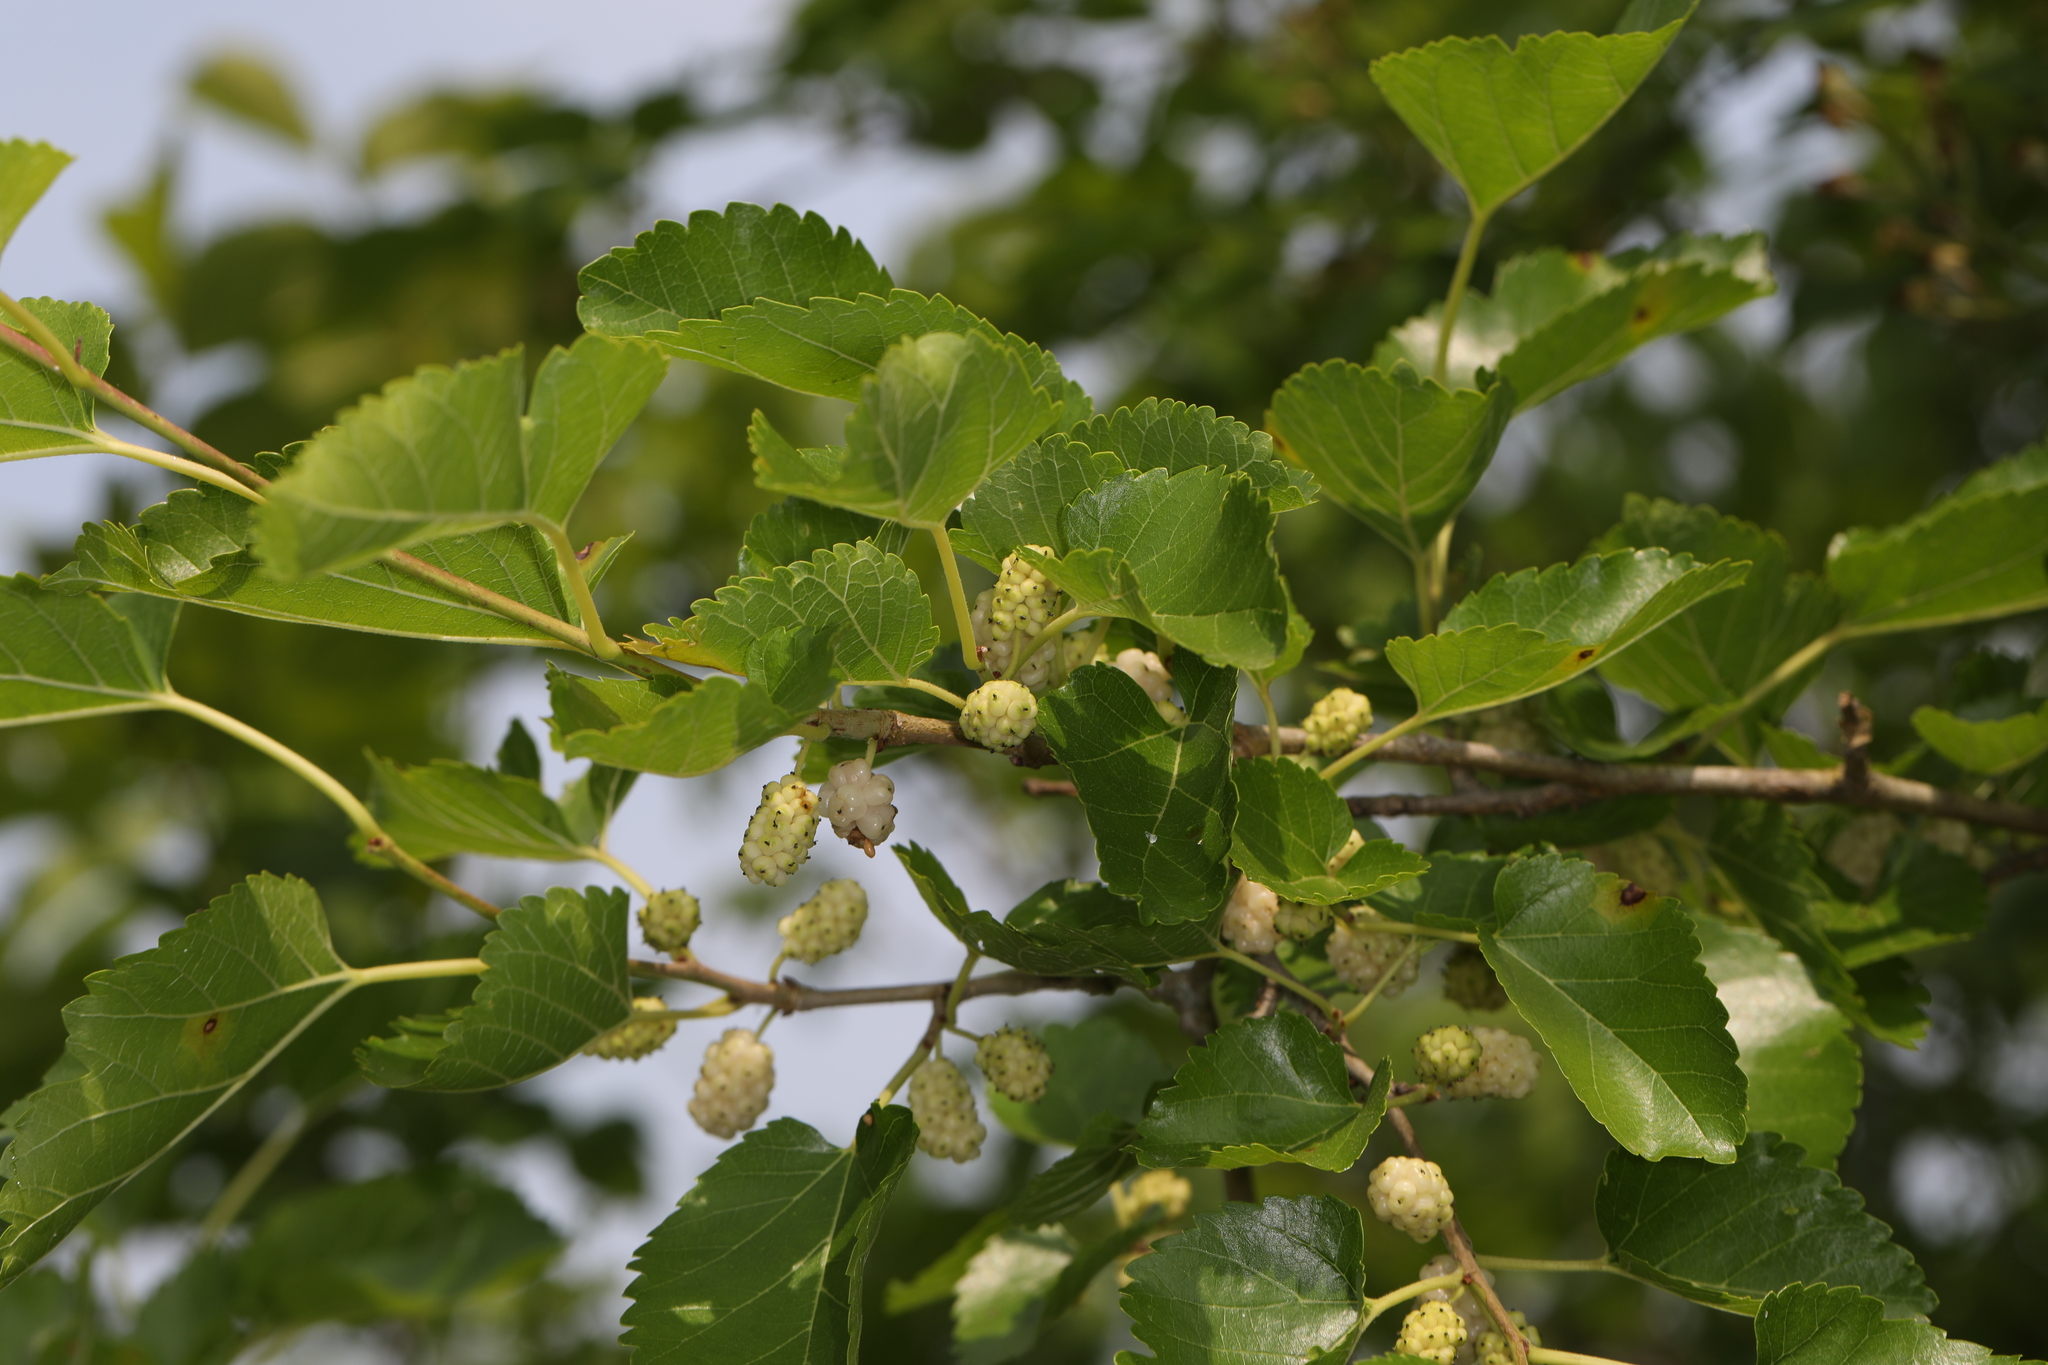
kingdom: Plantae
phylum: Tracheophyta
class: Magnoliopsida
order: Rosales
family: Moraceae
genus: Morus
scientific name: Morus alba
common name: White mulberry
